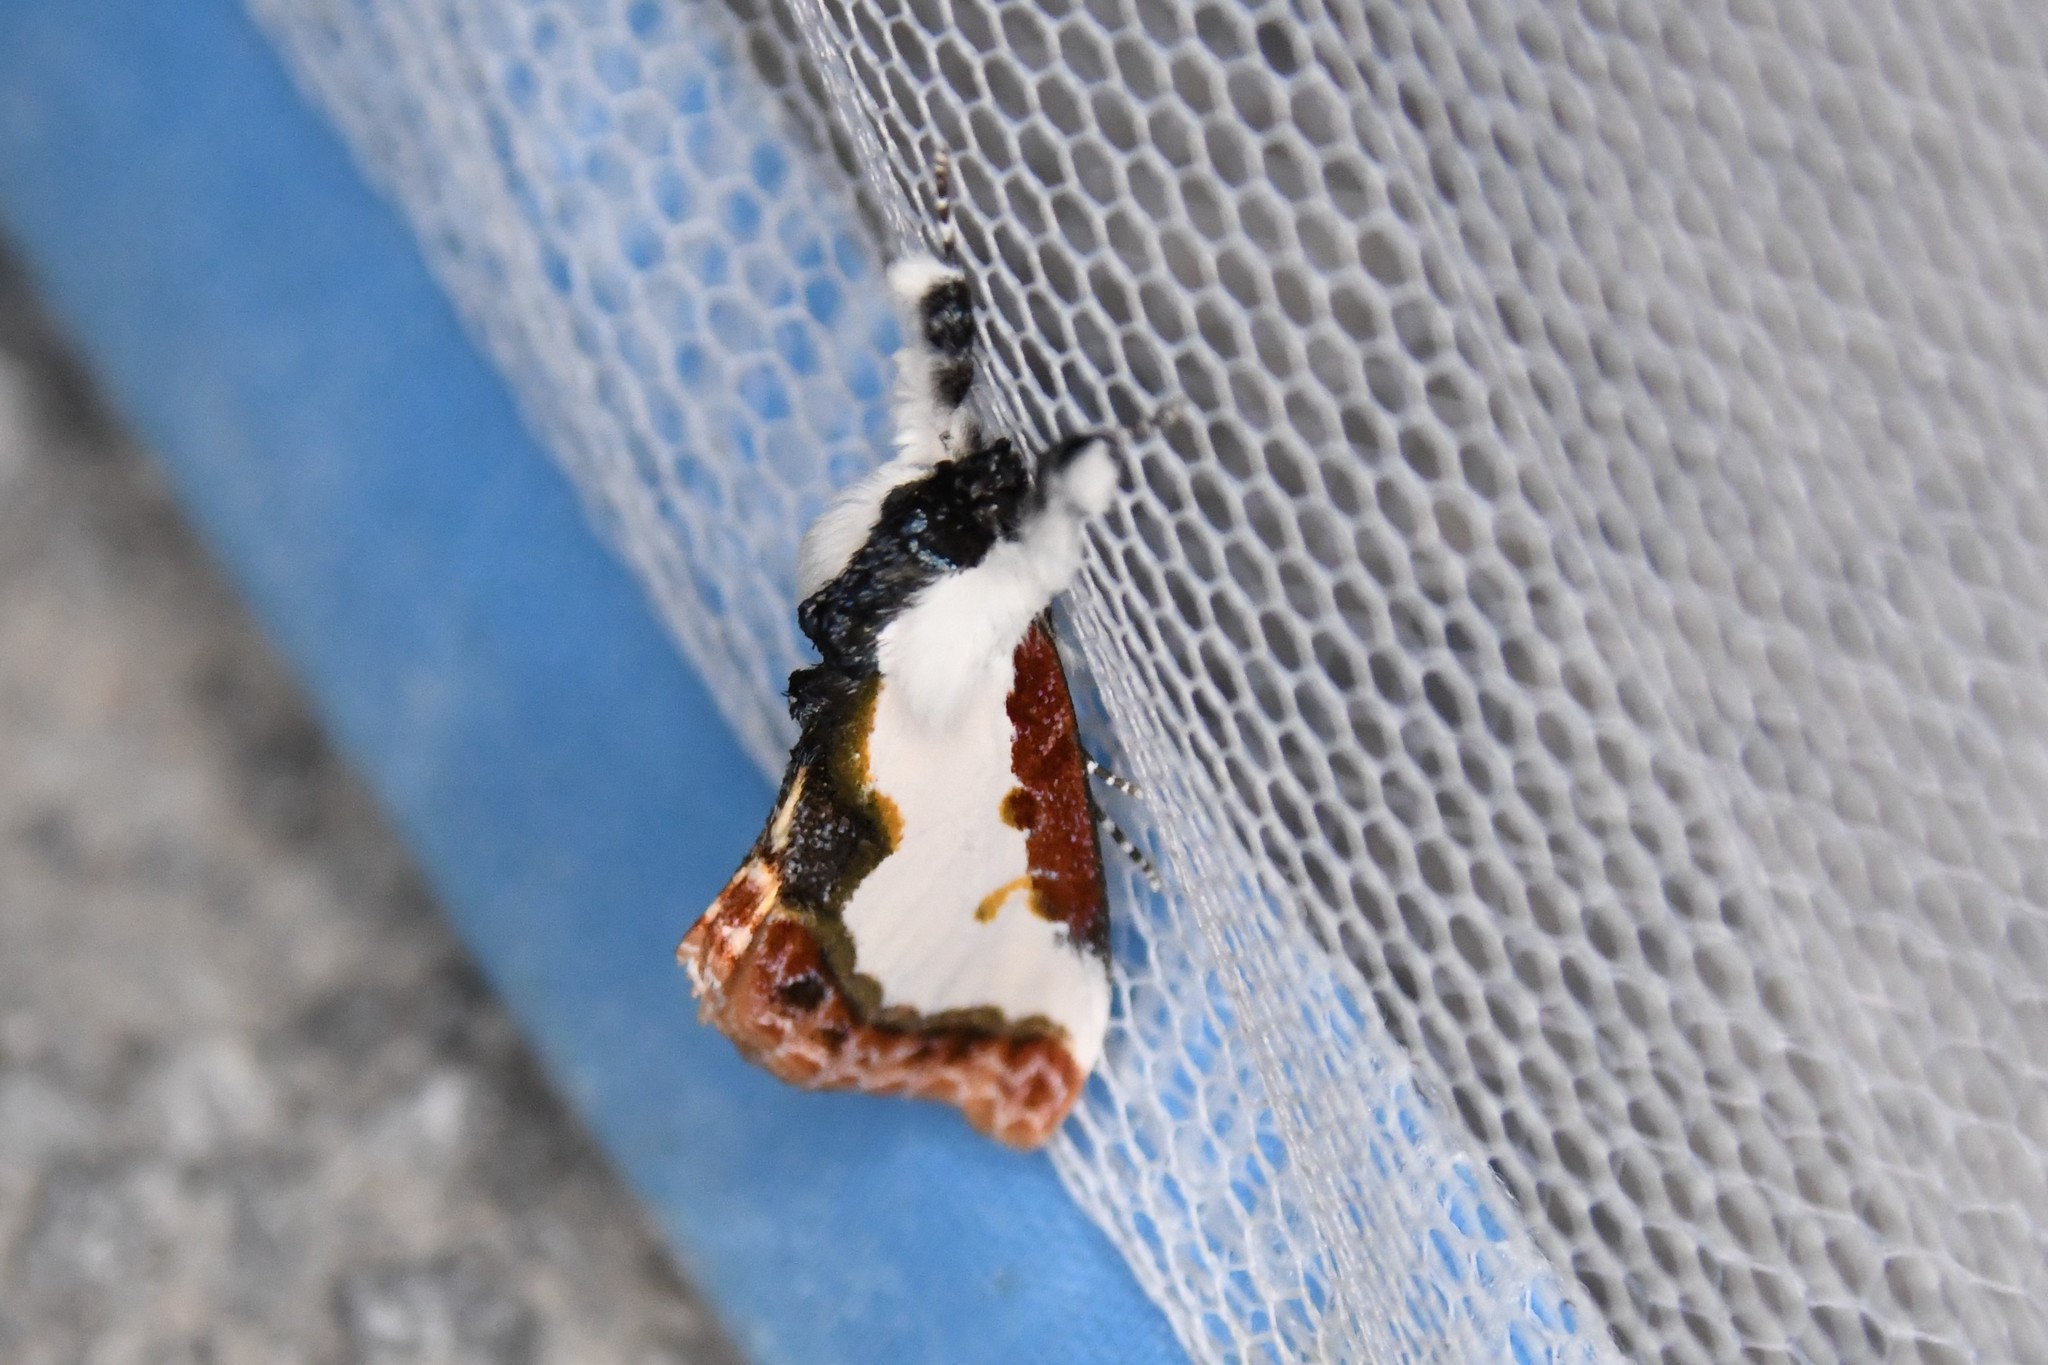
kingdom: Animalia
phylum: Arthropoda
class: Insecta
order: Lepidoptera
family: Noctuidae
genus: Eudryas
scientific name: Eudryas unio
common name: Pearly wood-nymph
